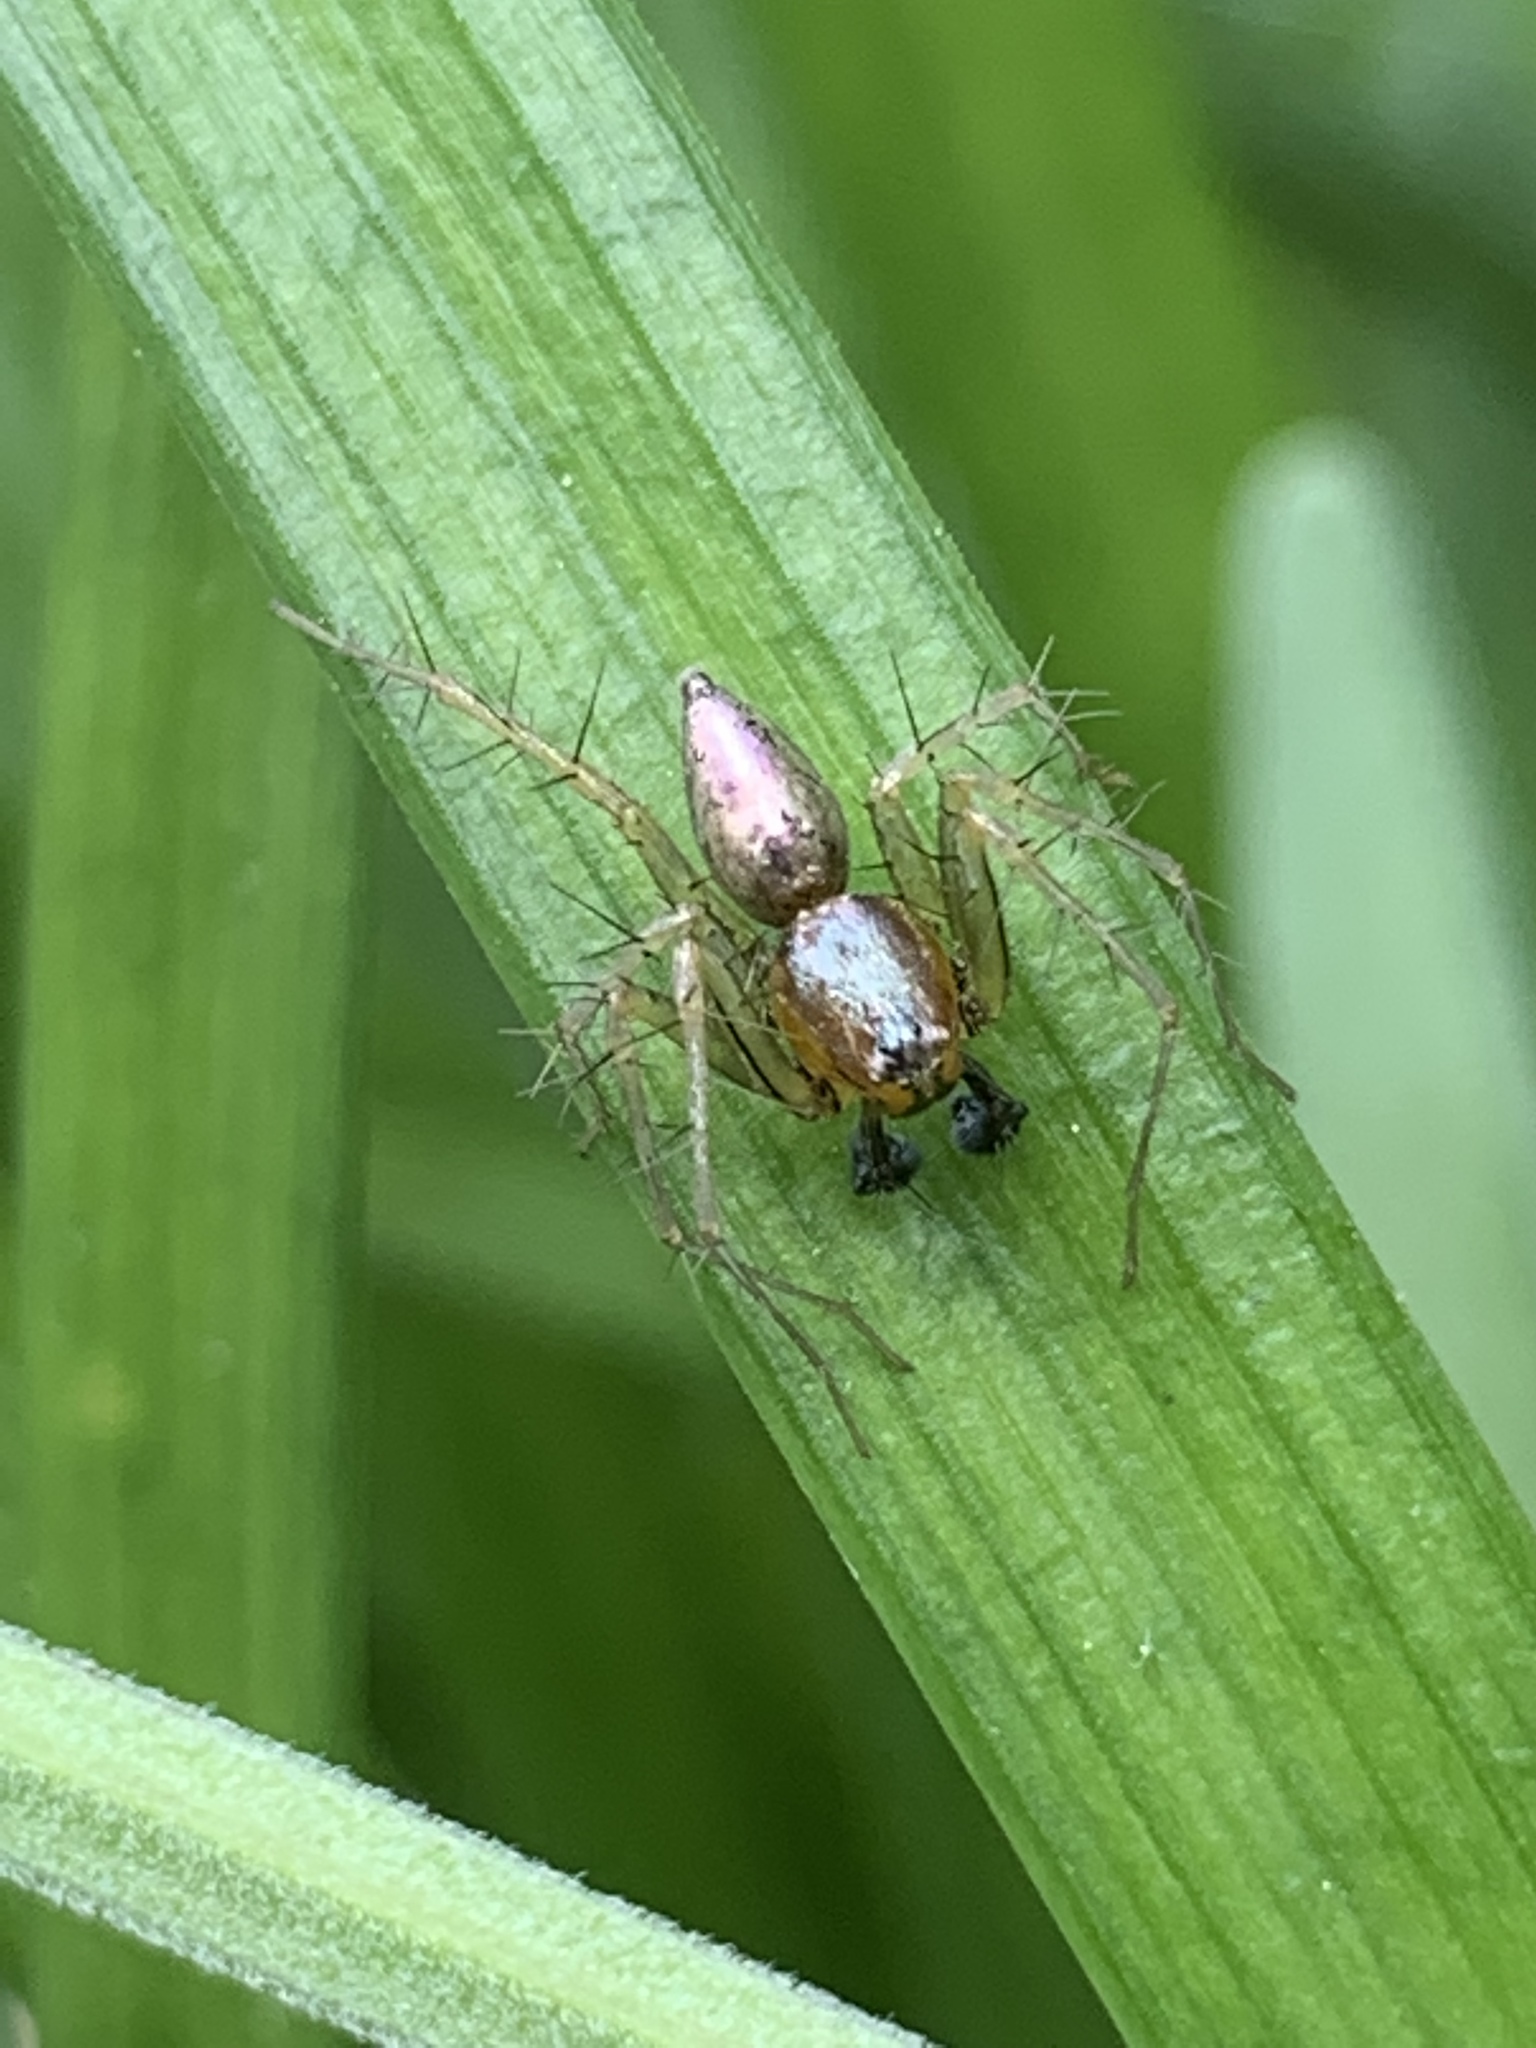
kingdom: Animalia
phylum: Arthropoda
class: Arachnida
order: Araneae
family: Oxyopidae
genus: Oxyopes
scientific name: Oxyopes salticus
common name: Lynx spiders
